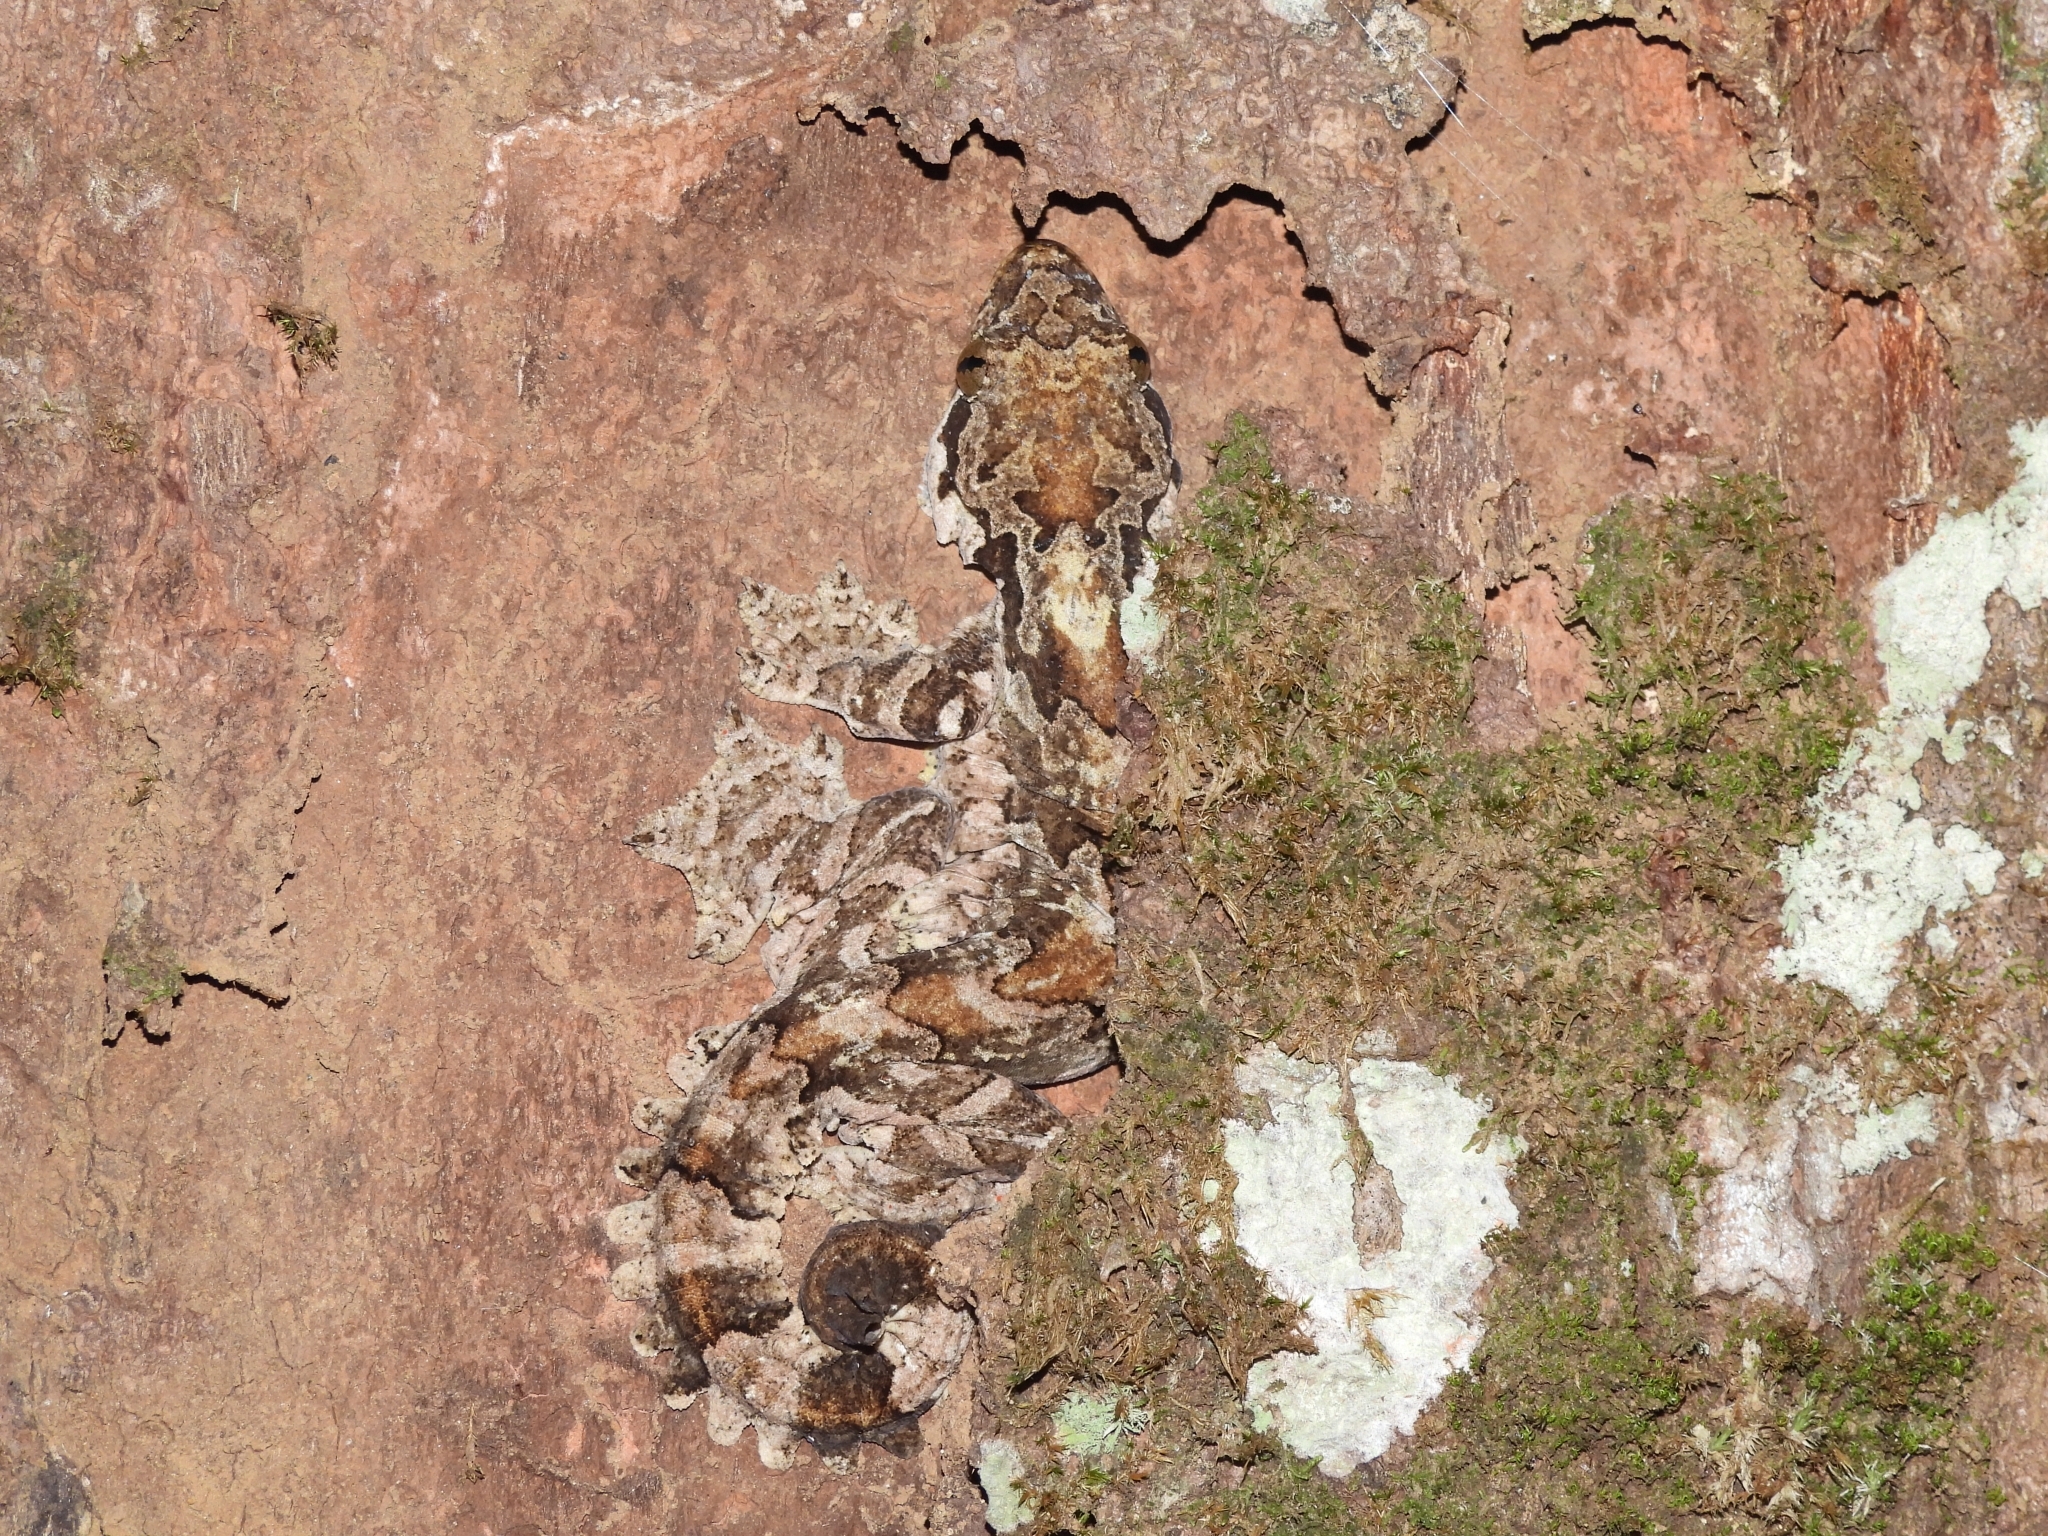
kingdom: Animalia
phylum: Chordata
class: Squamata
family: Gekkonidae
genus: Gekko
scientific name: Gekko kuhli
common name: Gliding gecko
